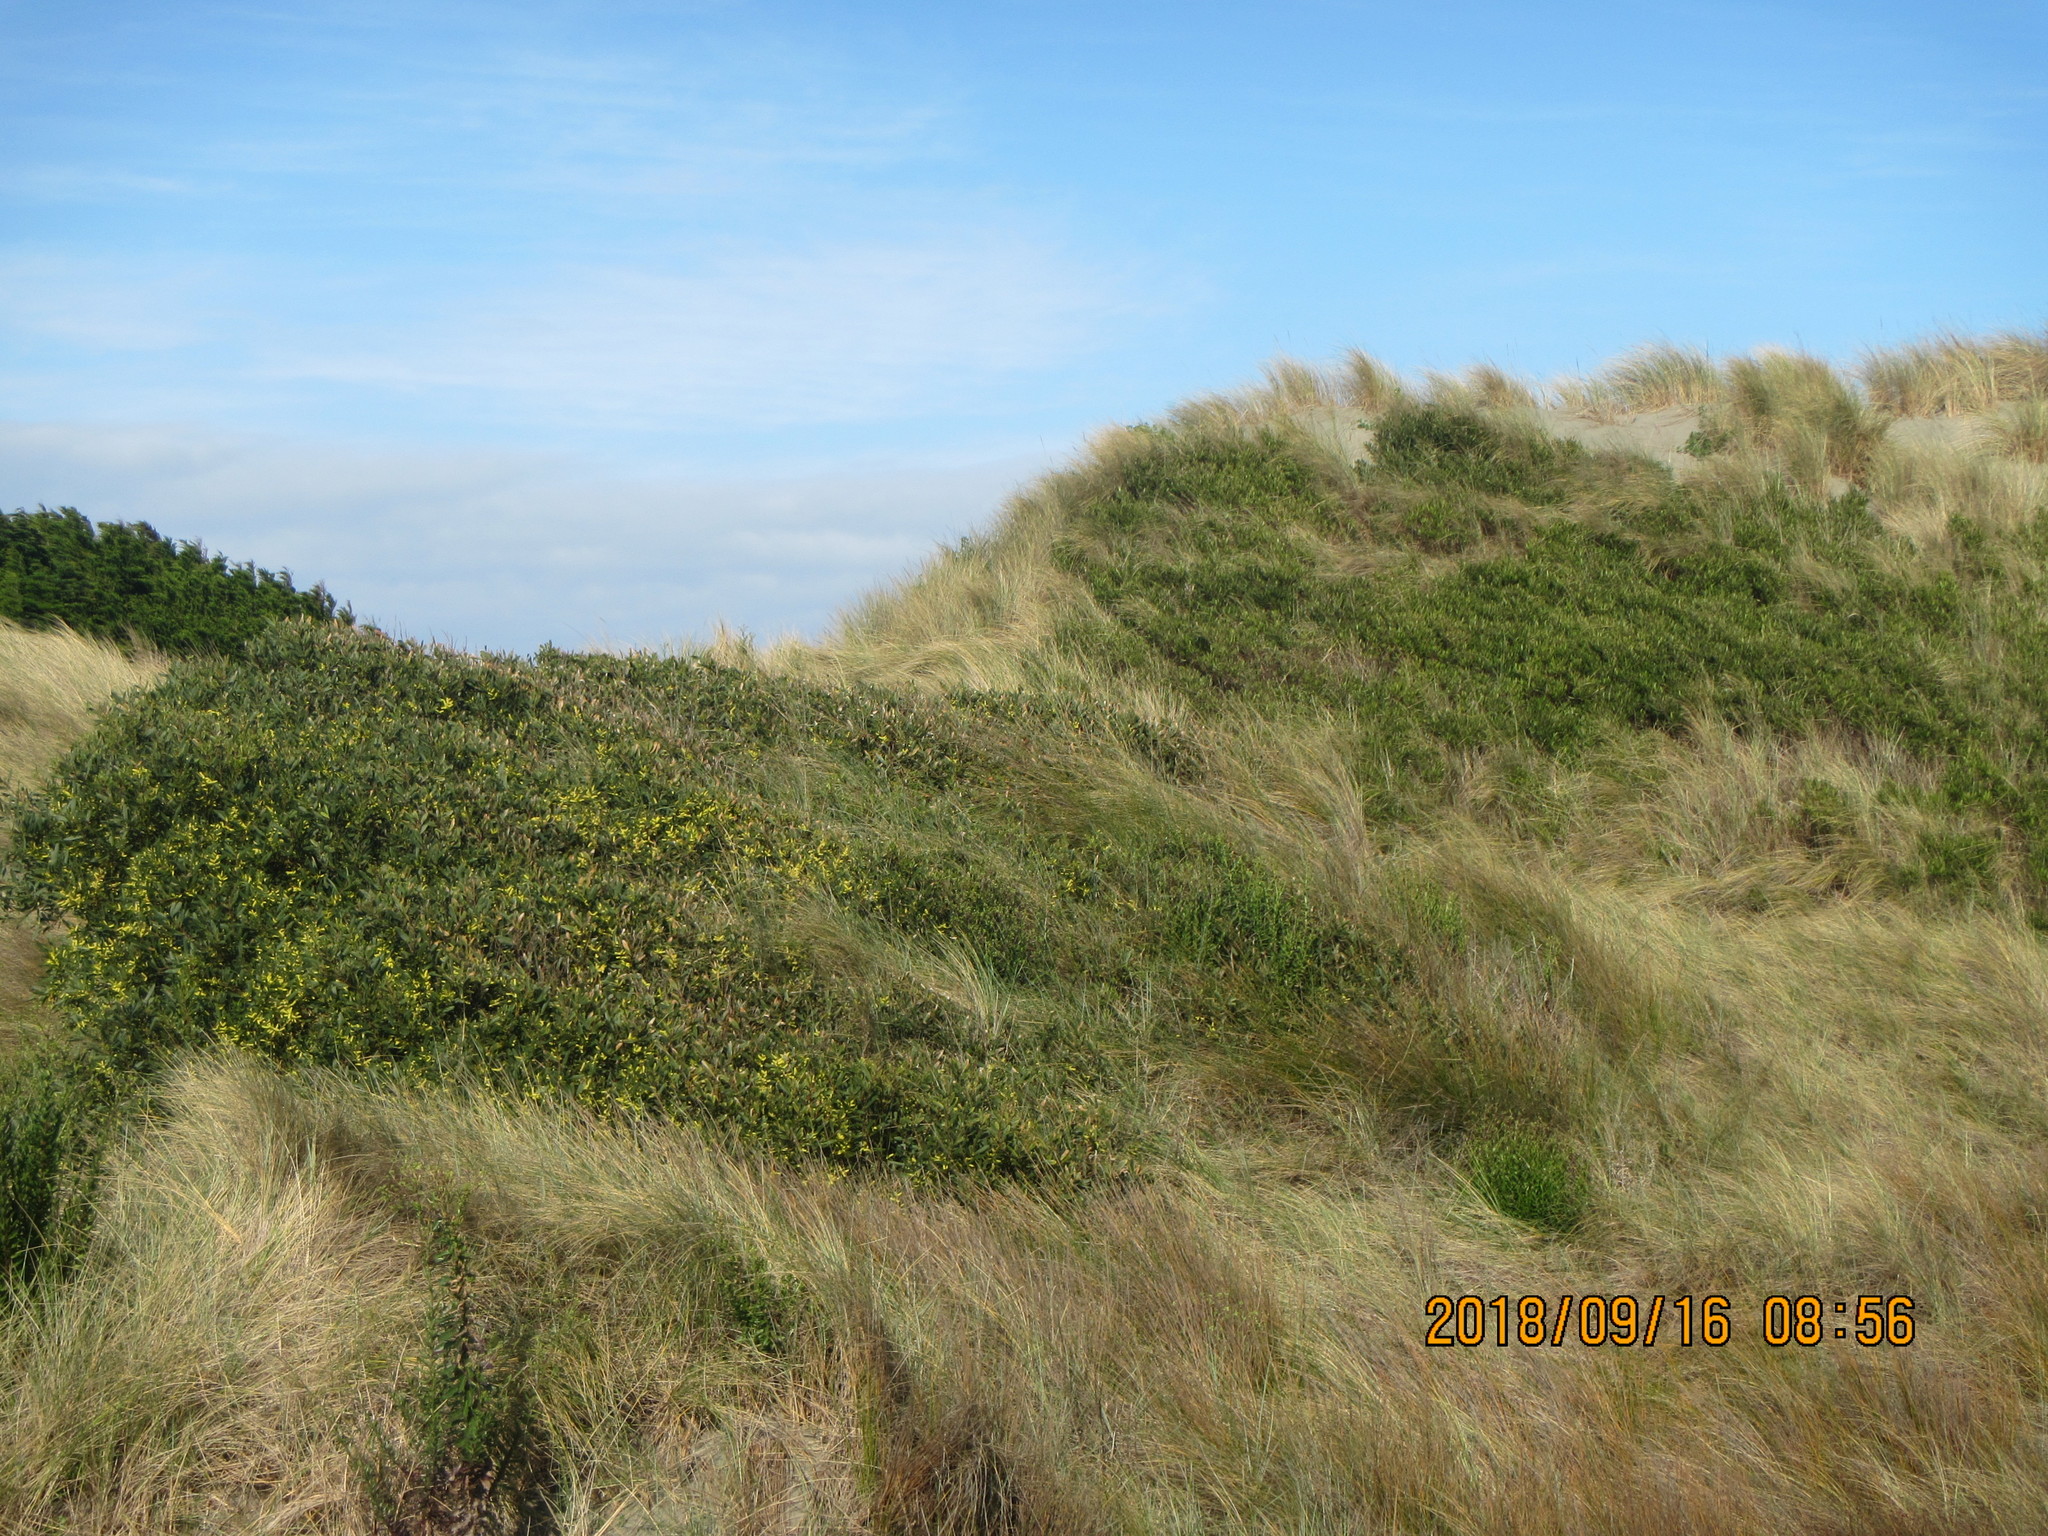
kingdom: Plantae
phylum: Tracheophyta
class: Magnoliopsida
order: Fabales
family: Fabaceae
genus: Acacia
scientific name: Acacia longifolia
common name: Sydney golden wattle
